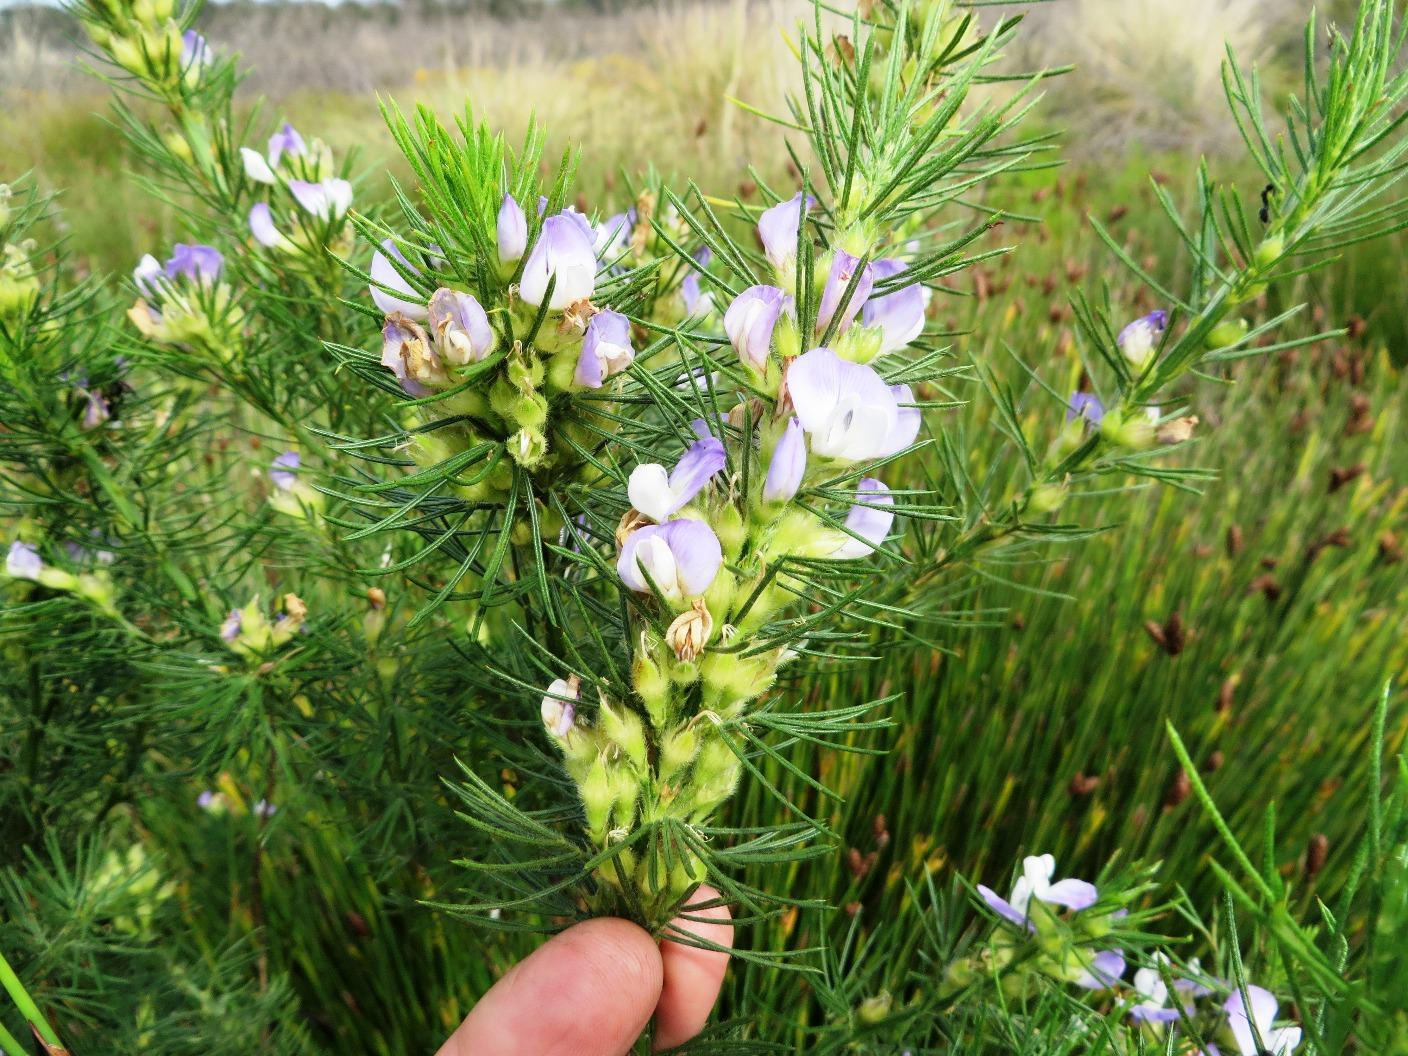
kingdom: Plantae
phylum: Tracheophyta
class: Magnoliopsida
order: Fabales
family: Fabaceae
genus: Psoralea
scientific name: Psoralea pinnata
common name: African scurfpea
